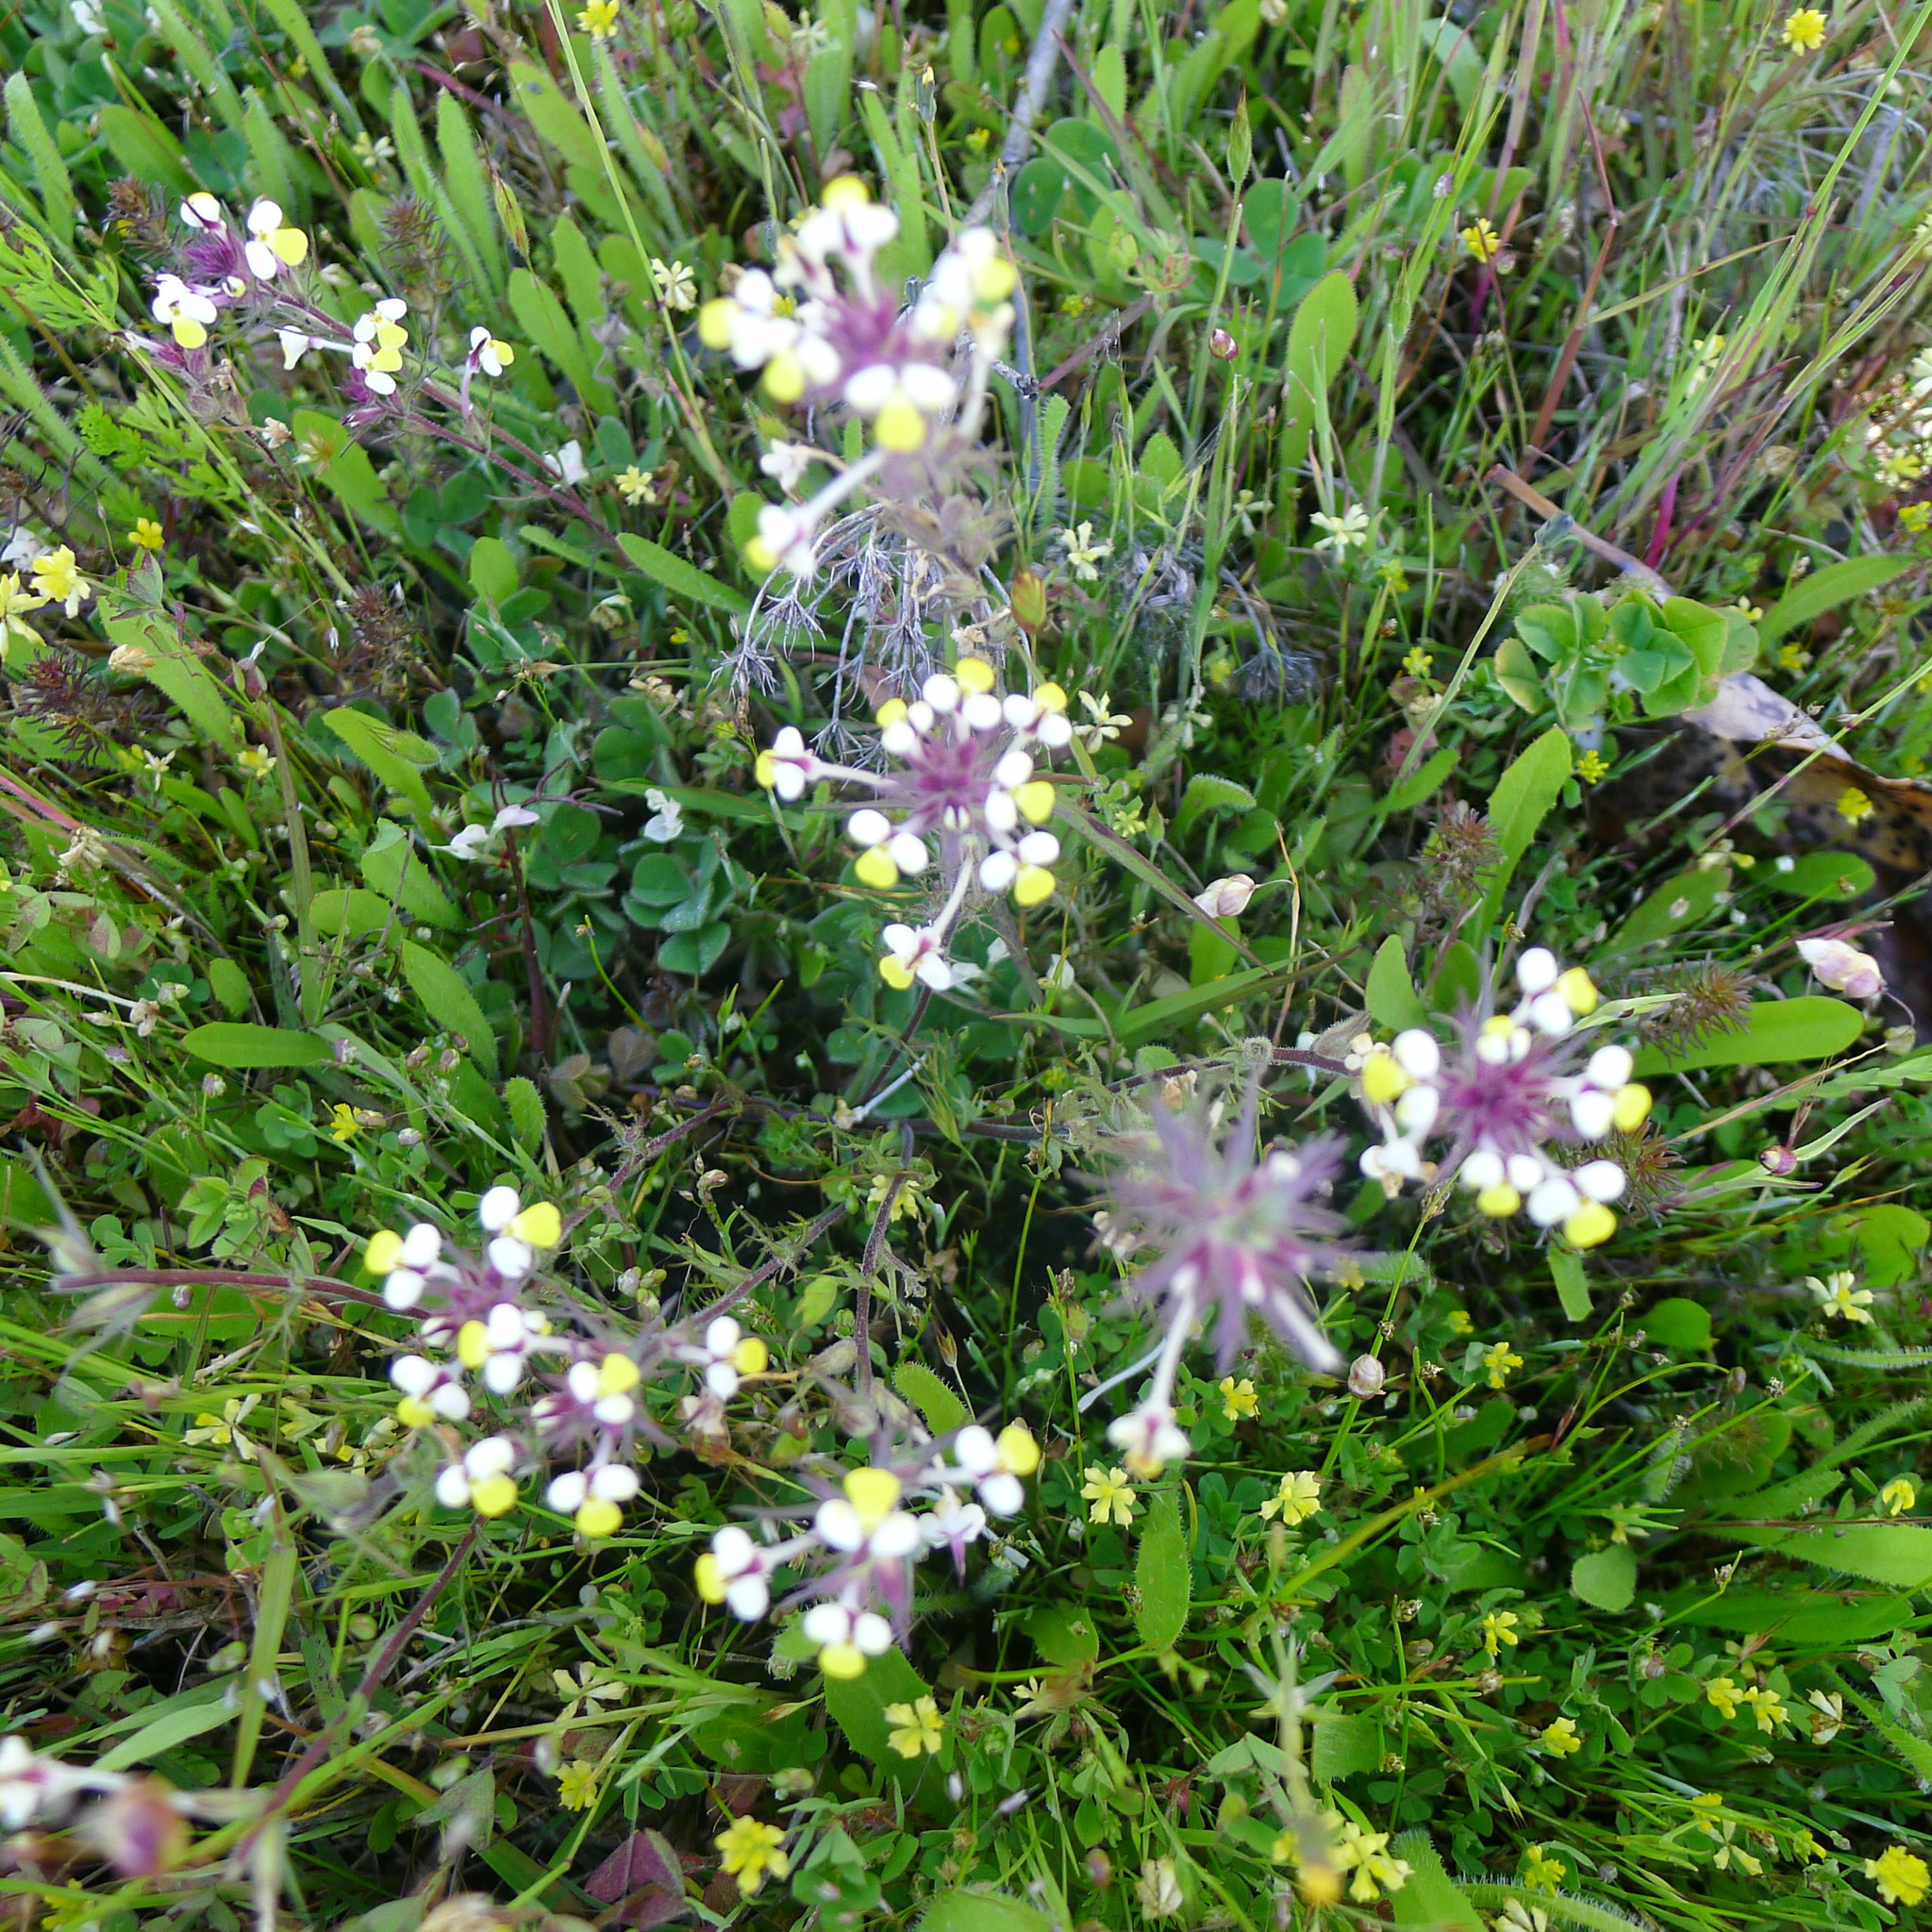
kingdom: Plantae
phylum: Tracheophyta
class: Magnoliopsida
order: Lamiales
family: Orobanchaceae
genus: Triphysaria
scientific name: Triphysaria eriantha
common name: Johnny-tuck
